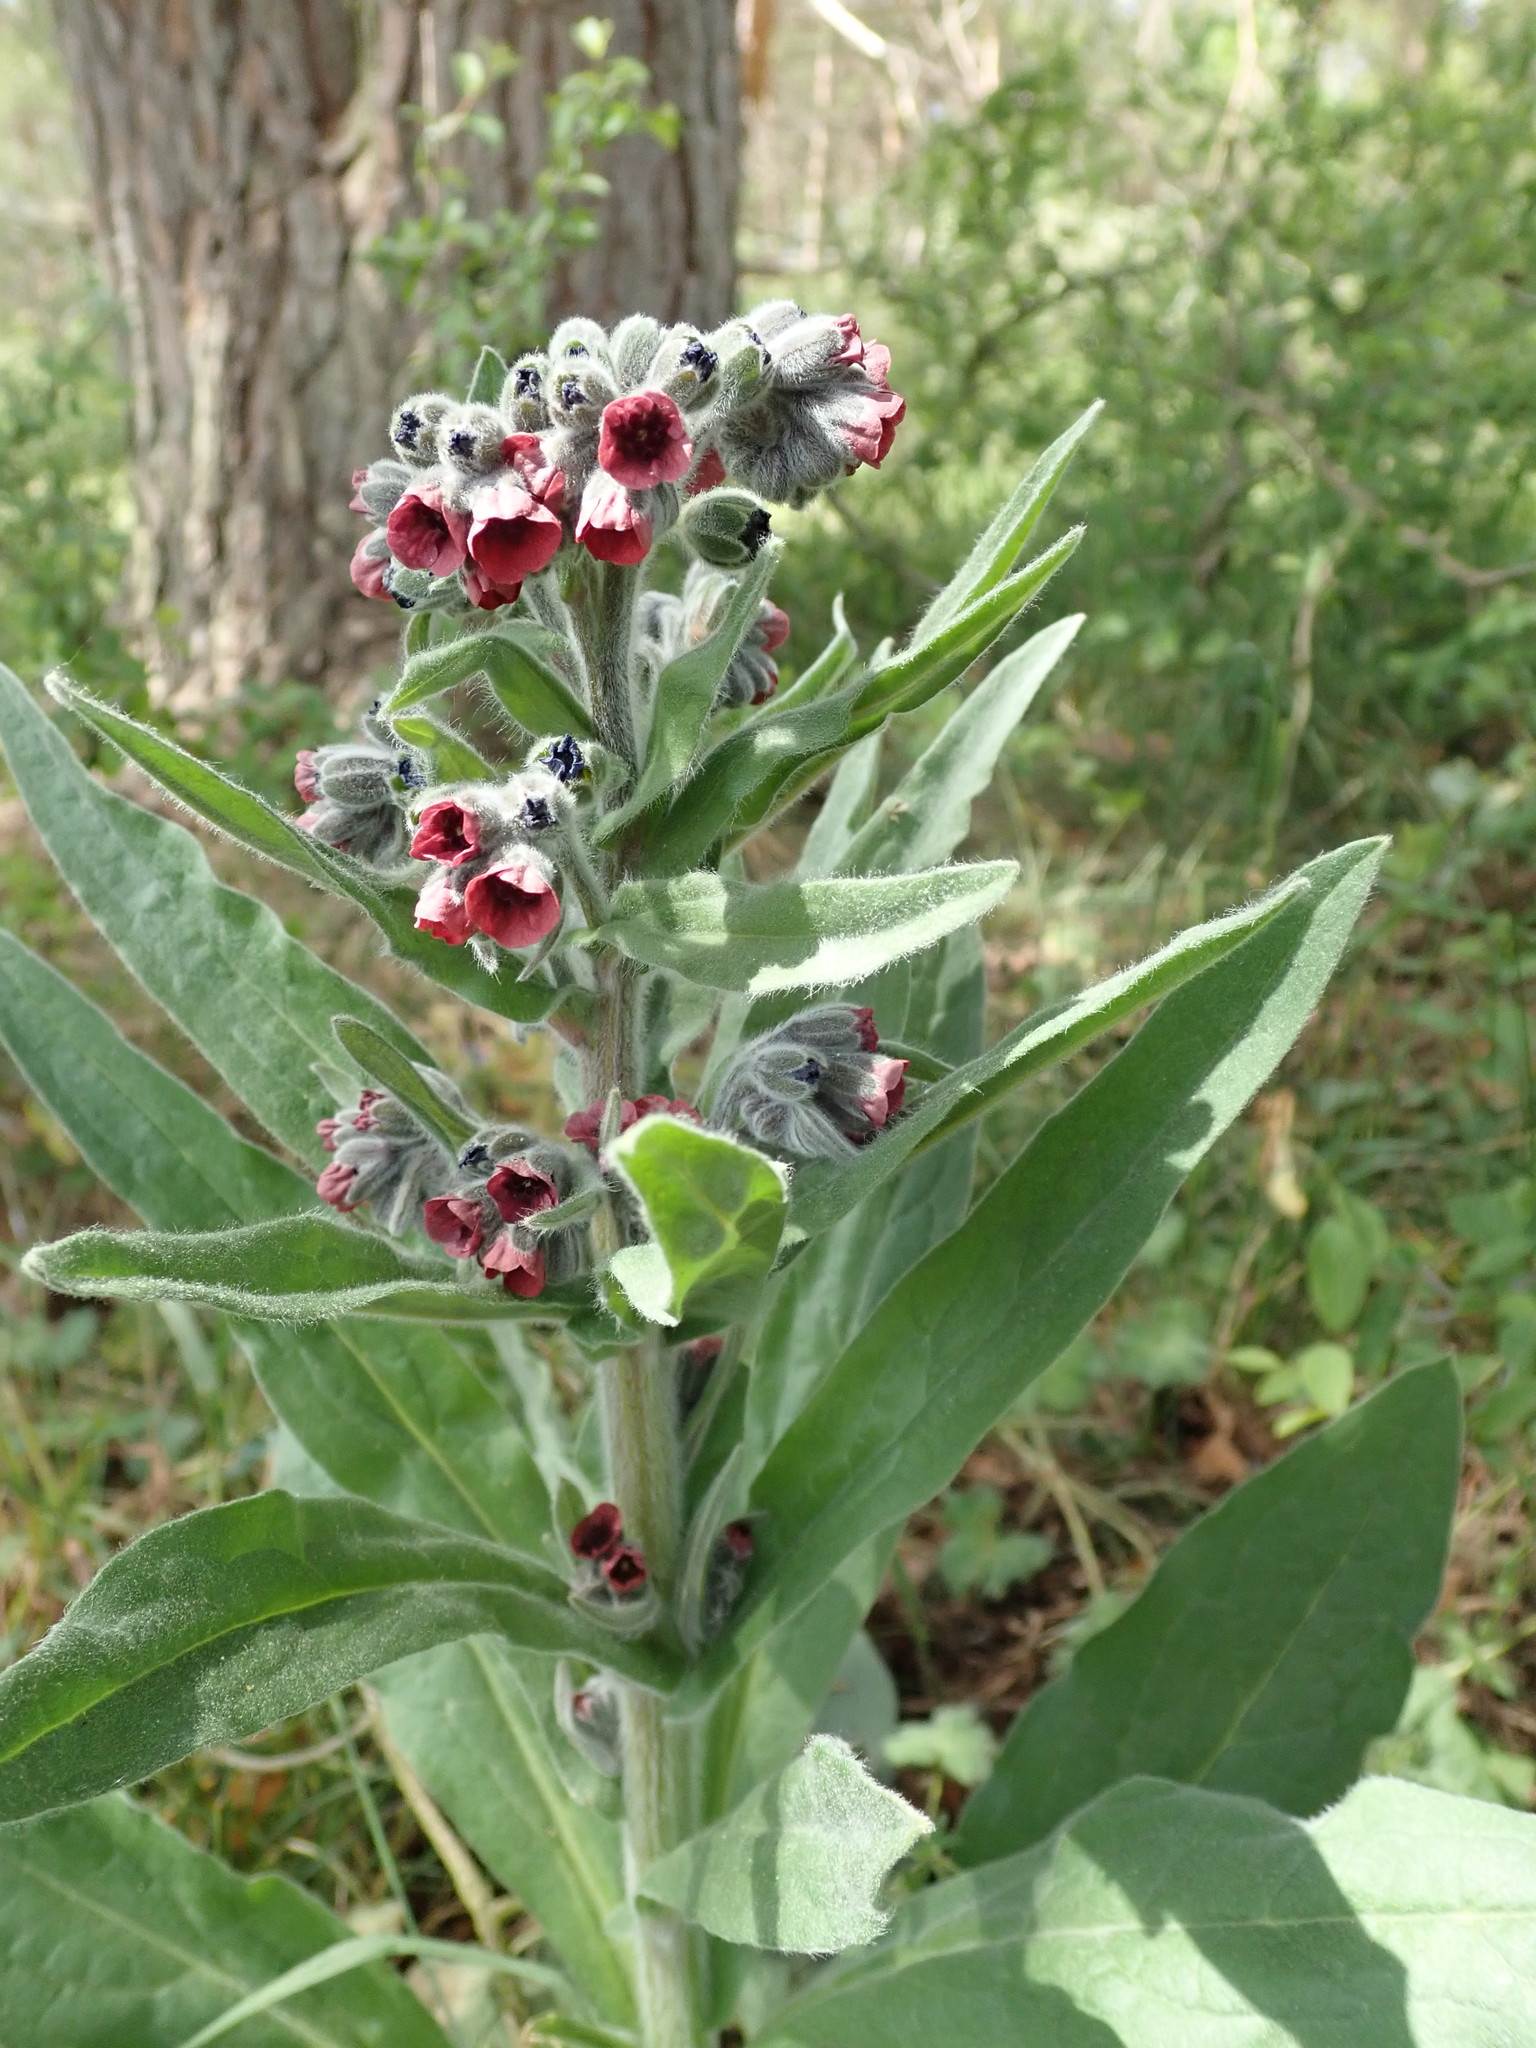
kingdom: Plantae
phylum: Tracheophyta
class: Magnoliopsida
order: Boraginales
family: Boraginaceae
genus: Cynoglossum
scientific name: Cynoglossum officinale
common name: Hound's-tongue
